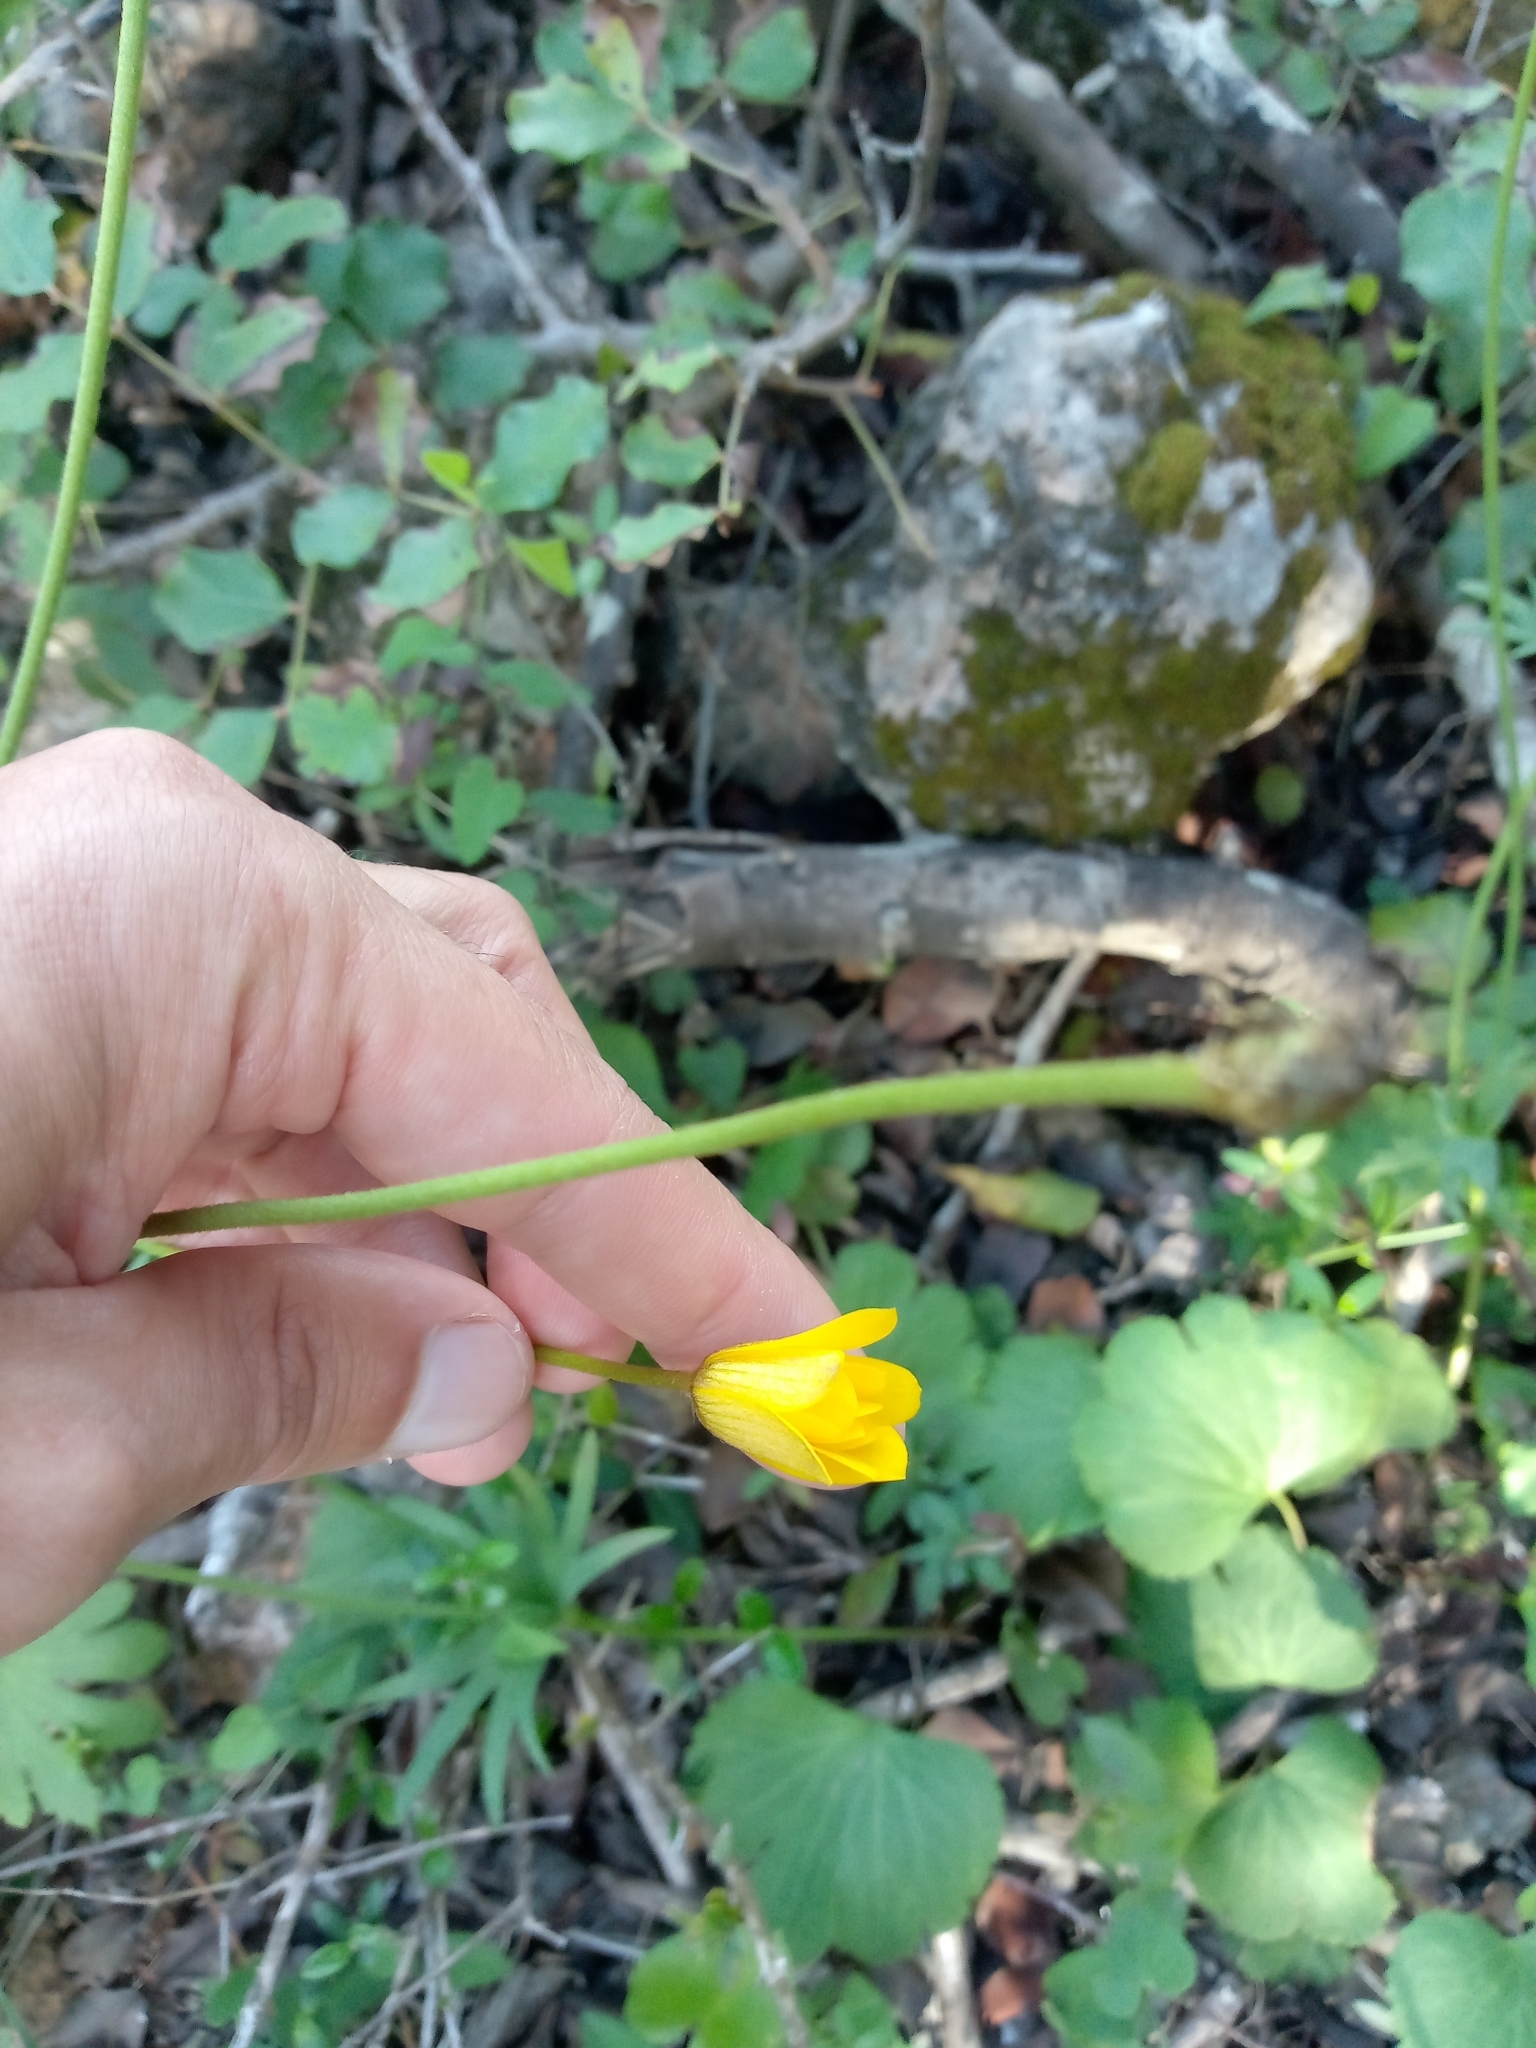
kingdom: Plantae
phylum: Tracheophyta
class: Magnoliopsida
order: Ranunculales
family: Ranunculaceae
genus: Anemone
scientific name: Anemone palmata
